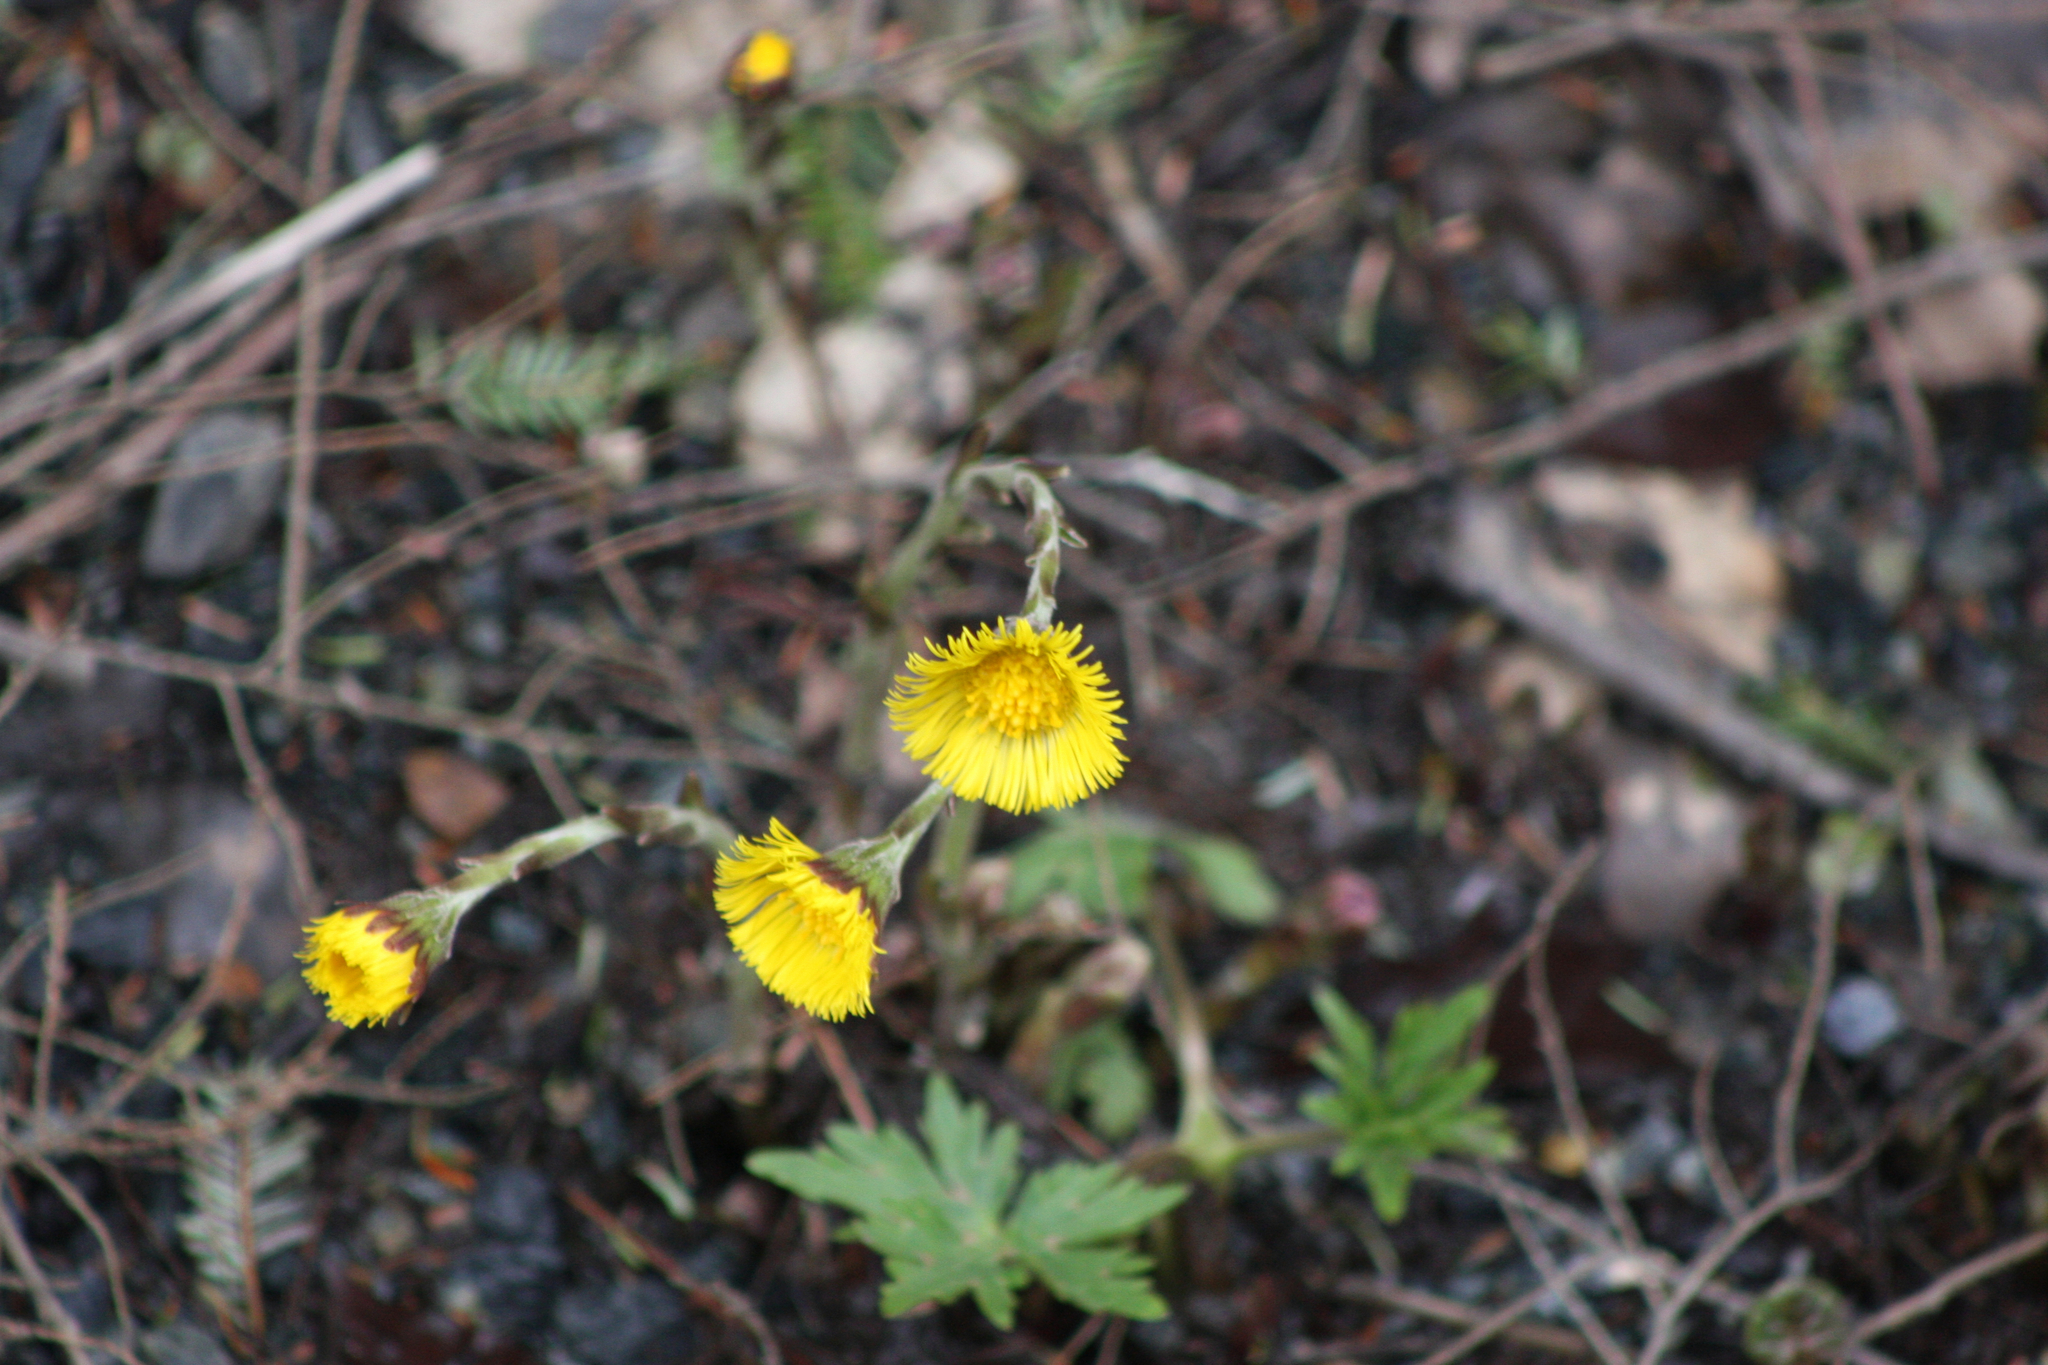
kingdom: Plantae
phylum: Tracheophyta
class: Magnoliopsida
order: Asterales
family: Asteraceae
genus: Tussilago
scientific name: Tussilago farfara
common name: Coltsfoot
